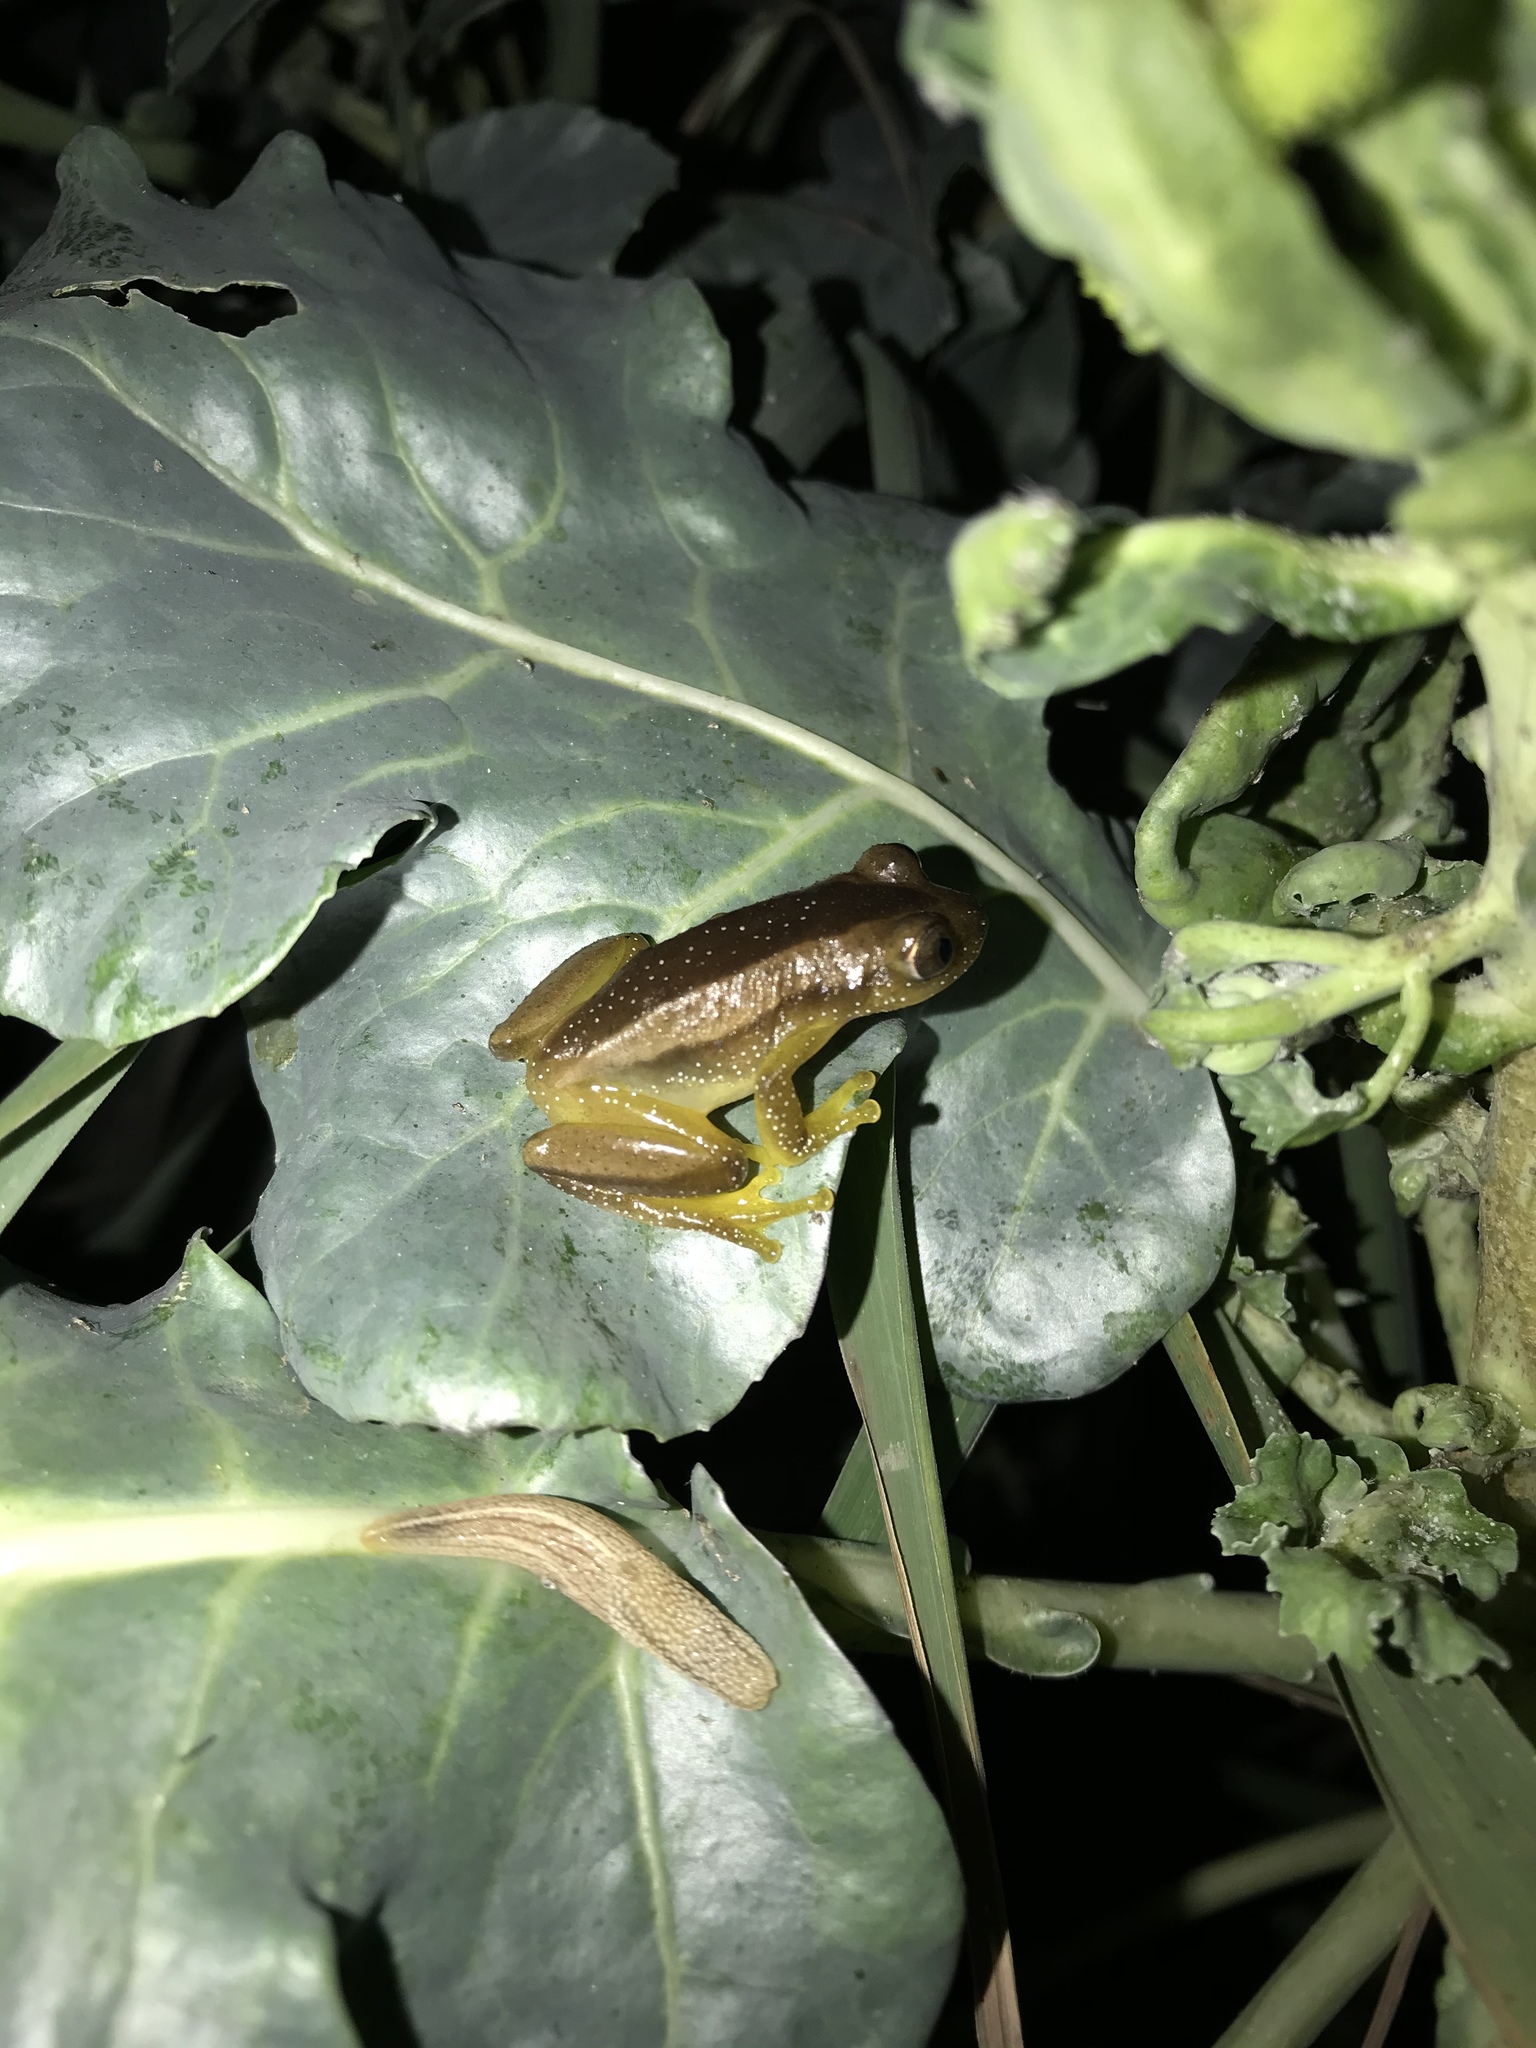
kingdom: Animalia
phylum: Chordata
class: Amphibia
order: Anura
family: Hyperoliidae
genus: Afrixalus
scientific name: Afrixalus fornasini
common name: Fornasini's spiny reed frog
